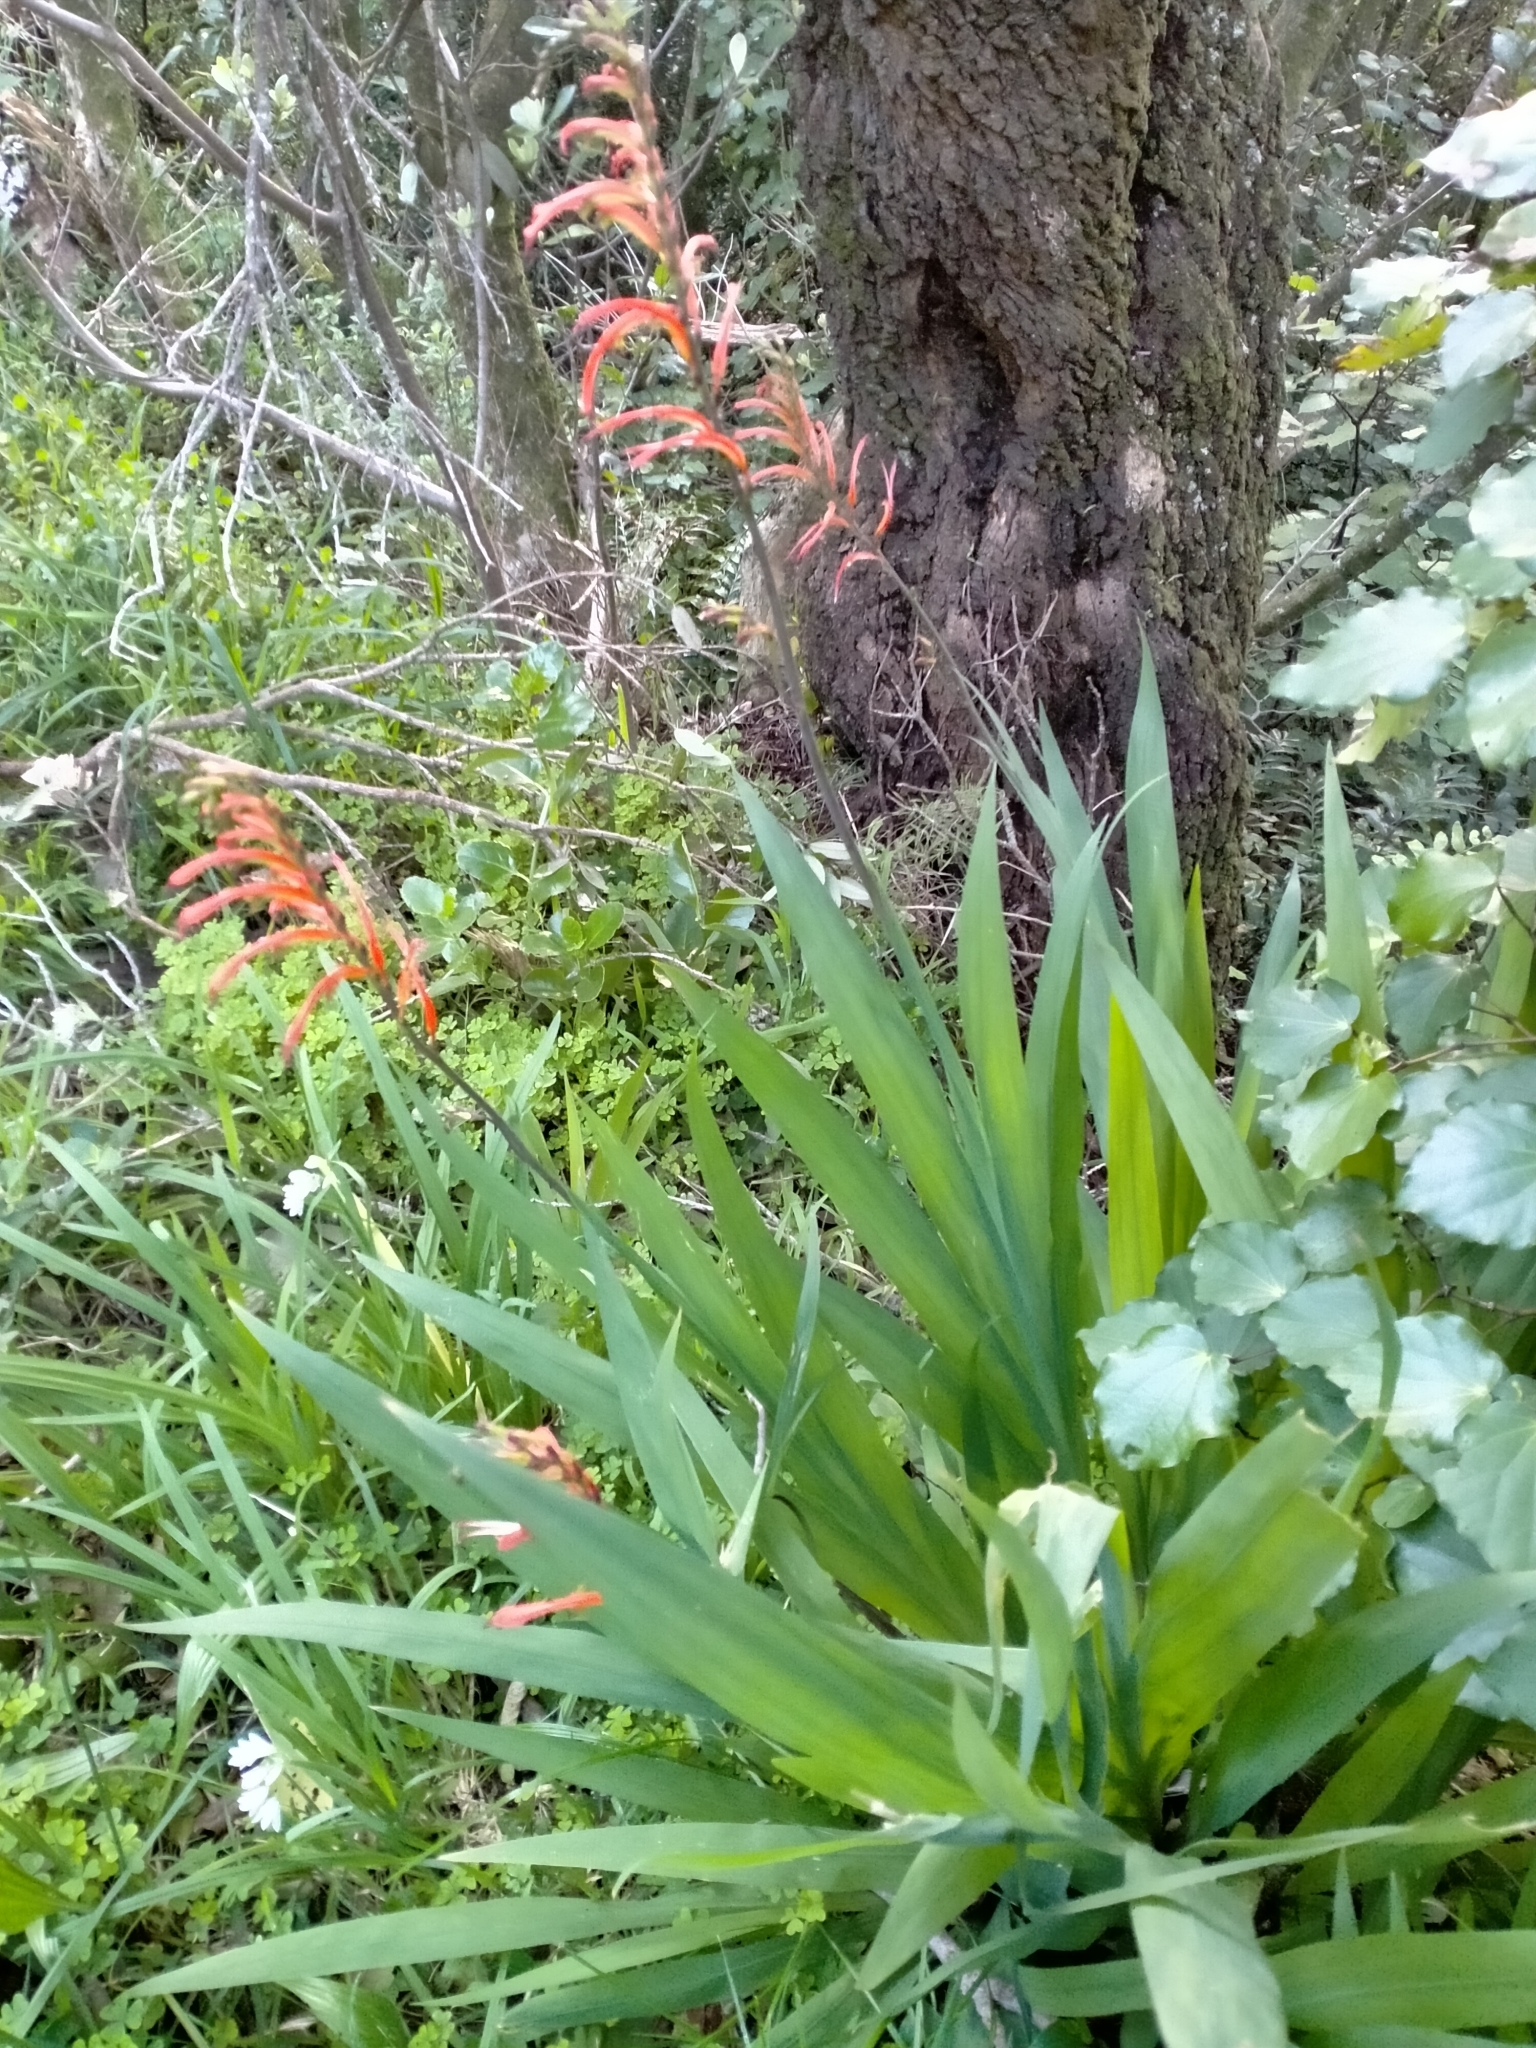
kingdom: Plantae
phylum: Tracheophyta
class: Liliopsida
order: Asparagales
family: Iridaceae
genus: Chasmanthe
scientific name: Chasmanthe bicolor
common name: Bicolor cobra lily
